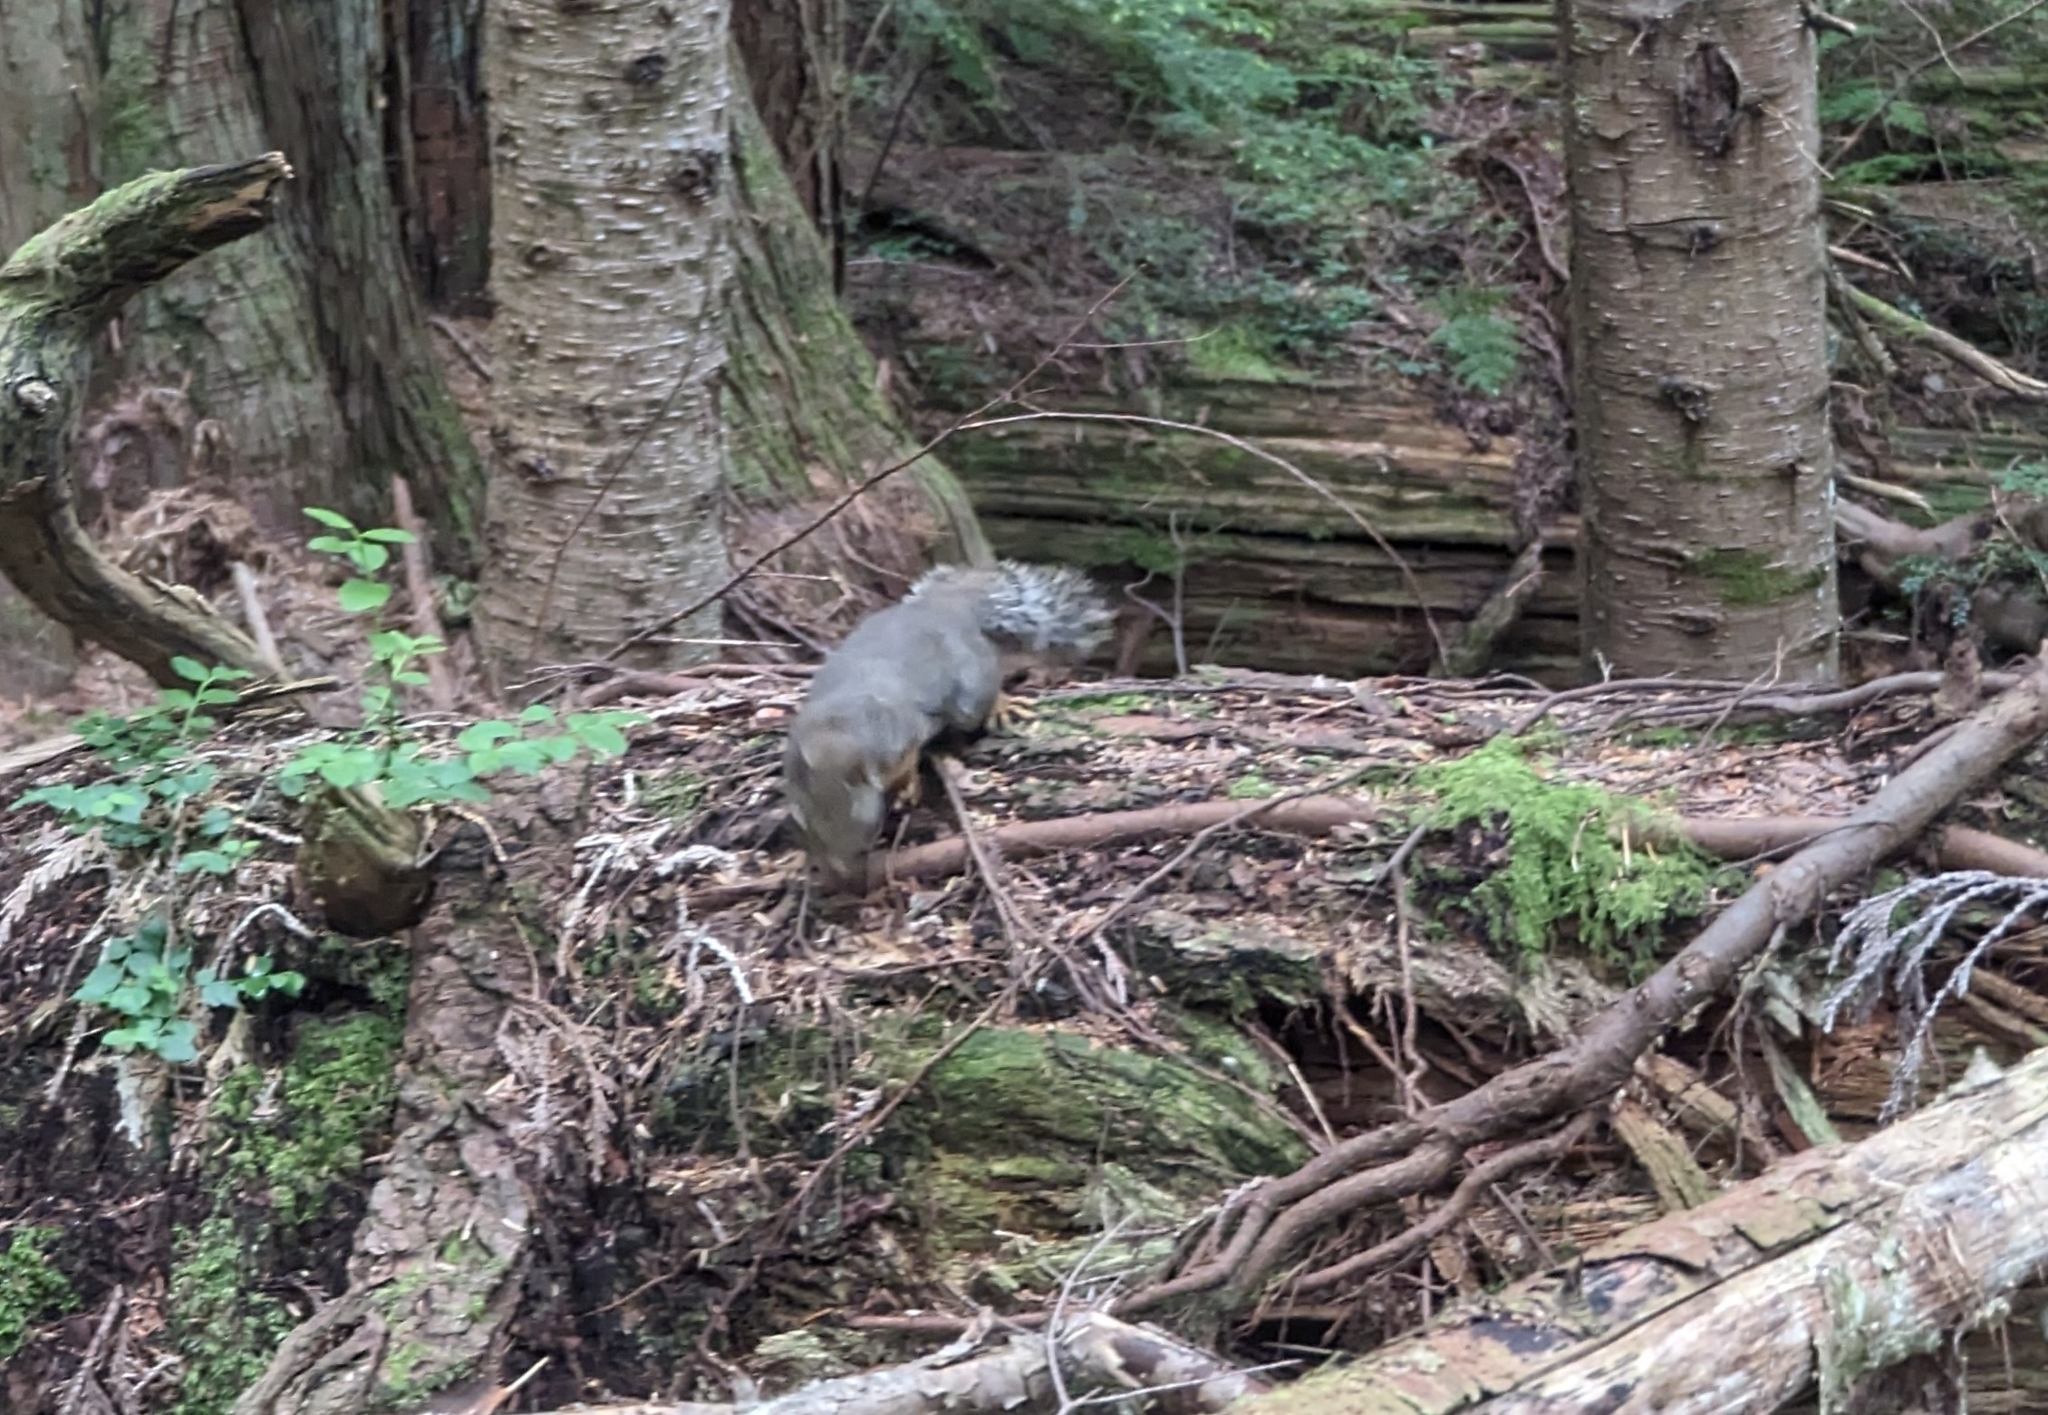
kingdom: Animalia
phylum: Chordata
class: Mammalia
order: Rodentia
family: Sciuridae
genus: Tamiasciurus
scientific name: Tamiasciurus douglasii
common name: Douglas's squirrel
